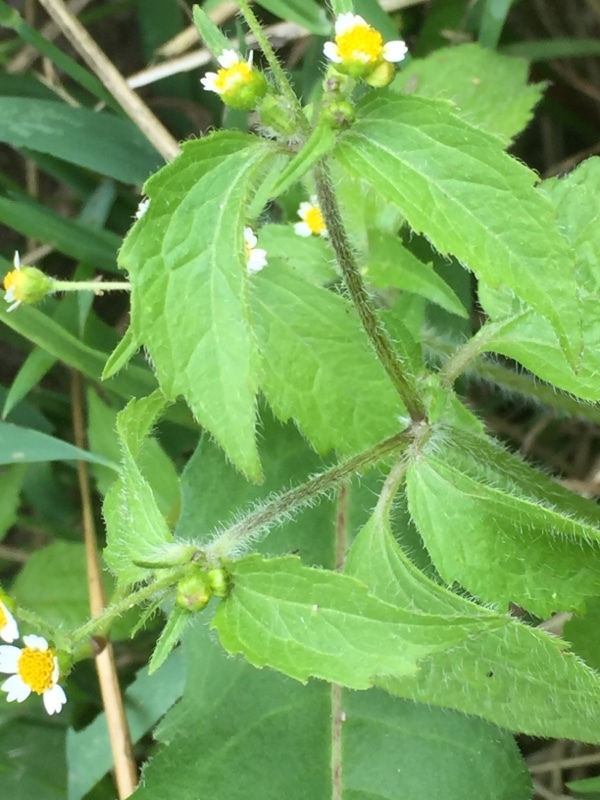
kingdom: Plantae
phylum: Tracheophyta
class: Magnoliopsida
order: Asterales
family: Asteraceae
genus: Galinsoga
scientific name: Galinsoga quadriradiata
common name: Shaggy soldier
